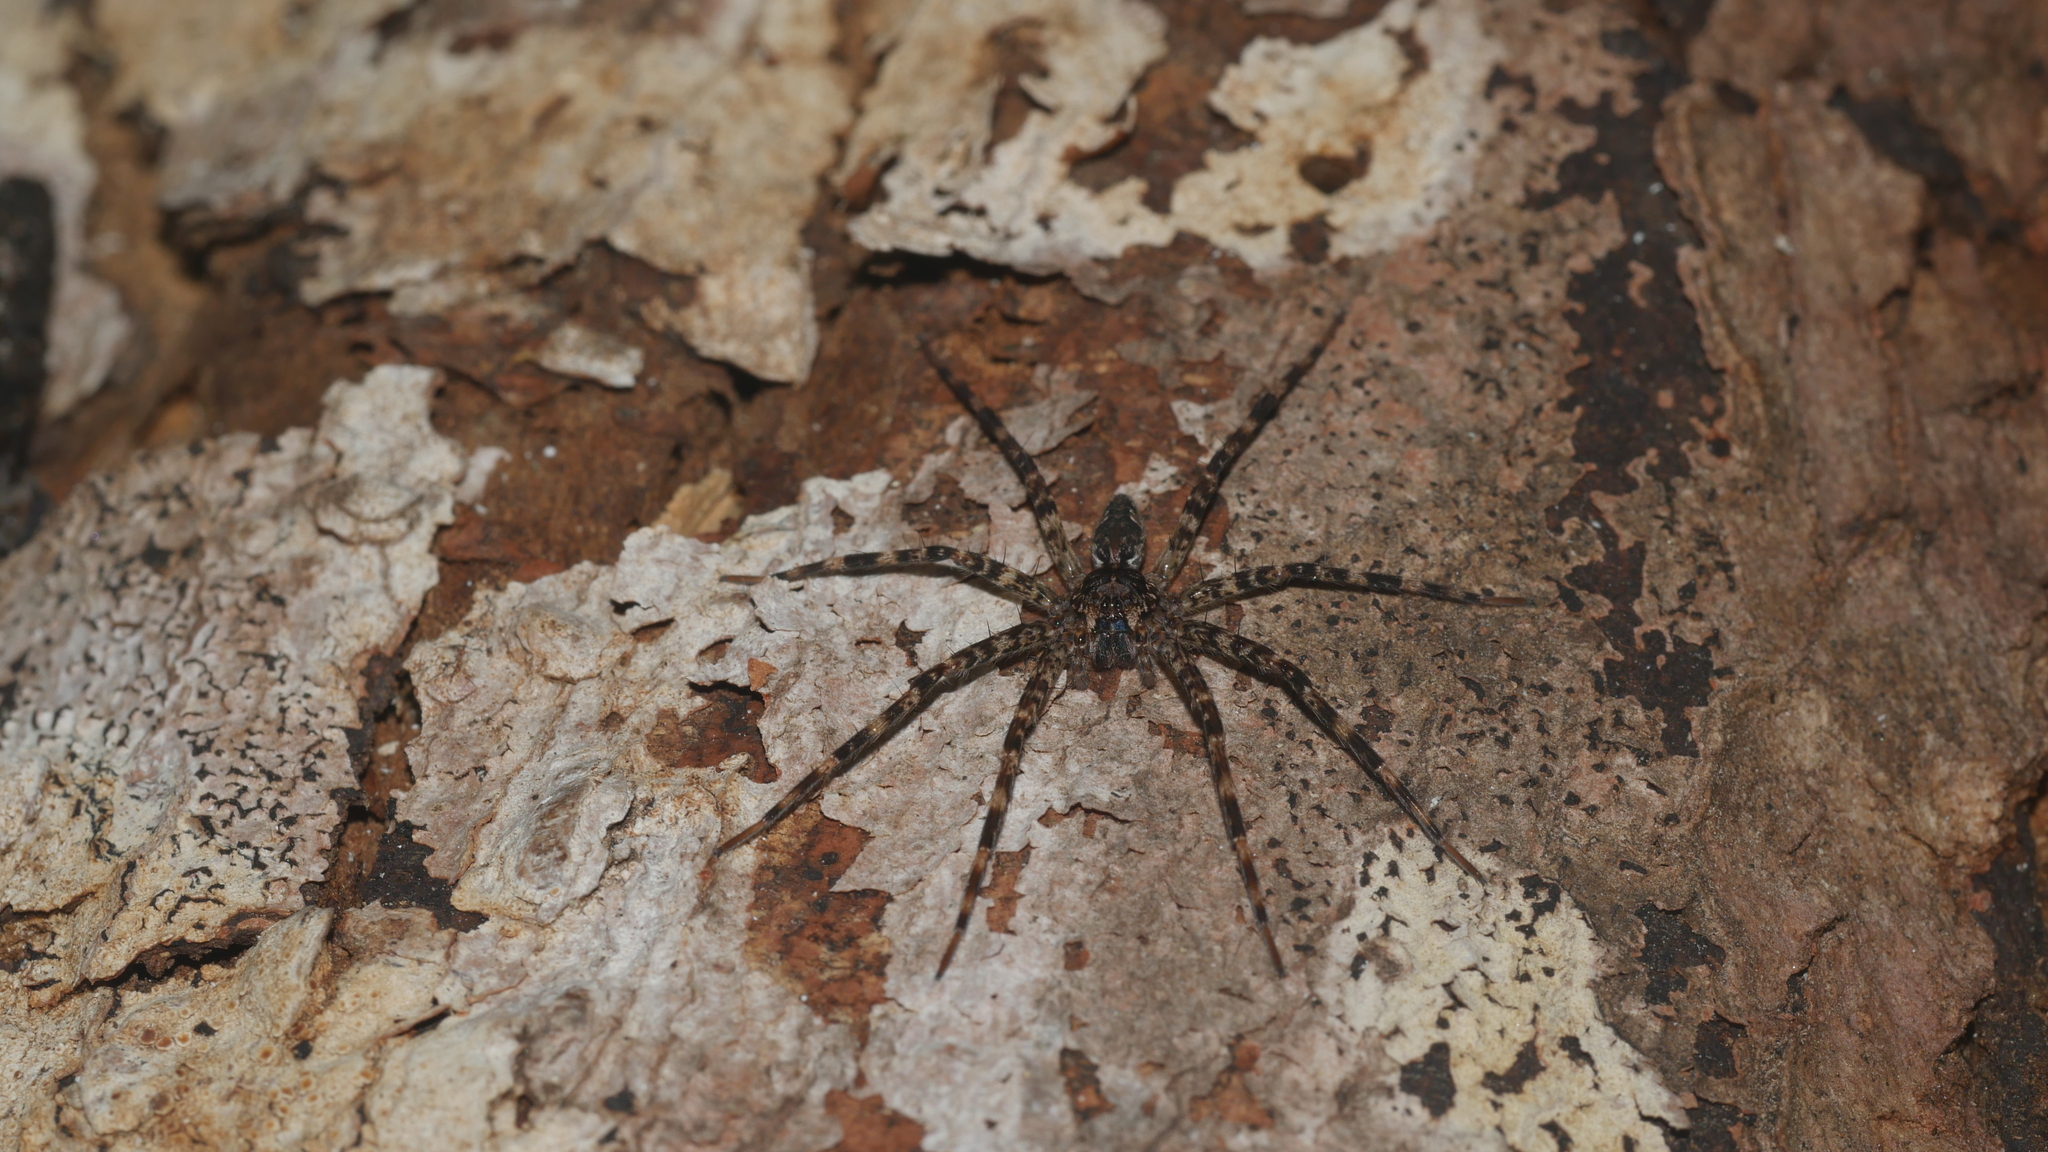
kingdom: Animalia
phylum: Arthropoda
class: Arachnida
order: Araneae
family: Pisauridae
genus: Dolomedes
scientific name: Dolomedes tenebrosus
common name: Dark fishing spider
